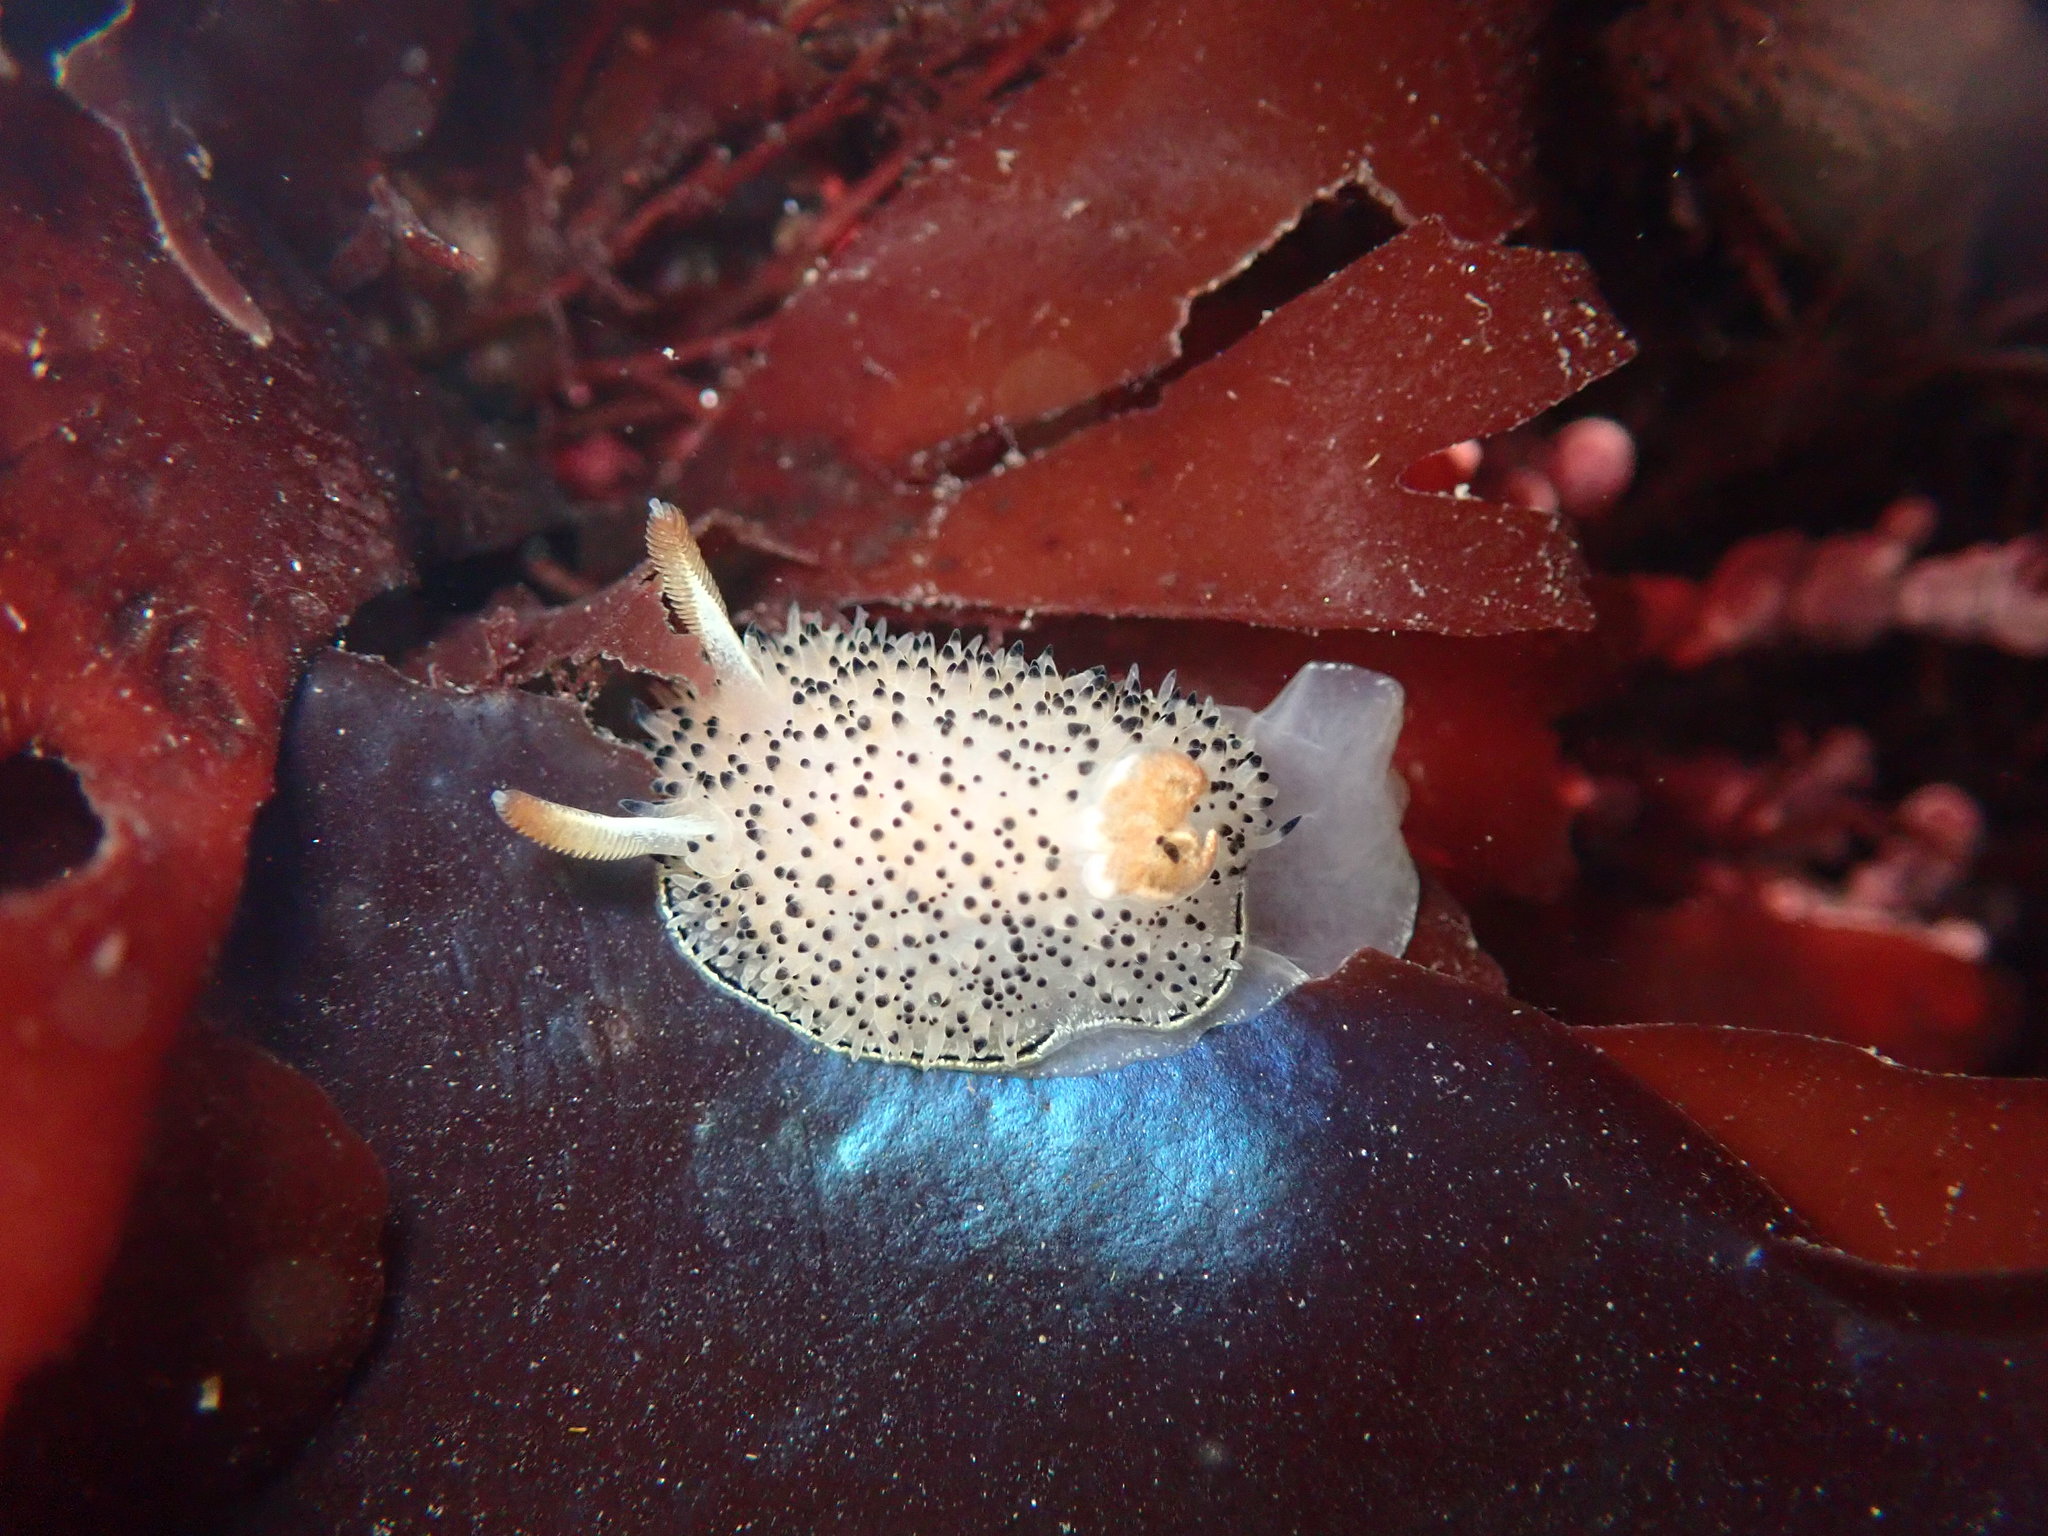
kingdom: Animalia
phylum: Mollusca
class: Gastropoda
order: Nudibranchia
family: Onchidorididae
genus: Acanthodoris
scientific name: Acanthodoris rhodoceras
